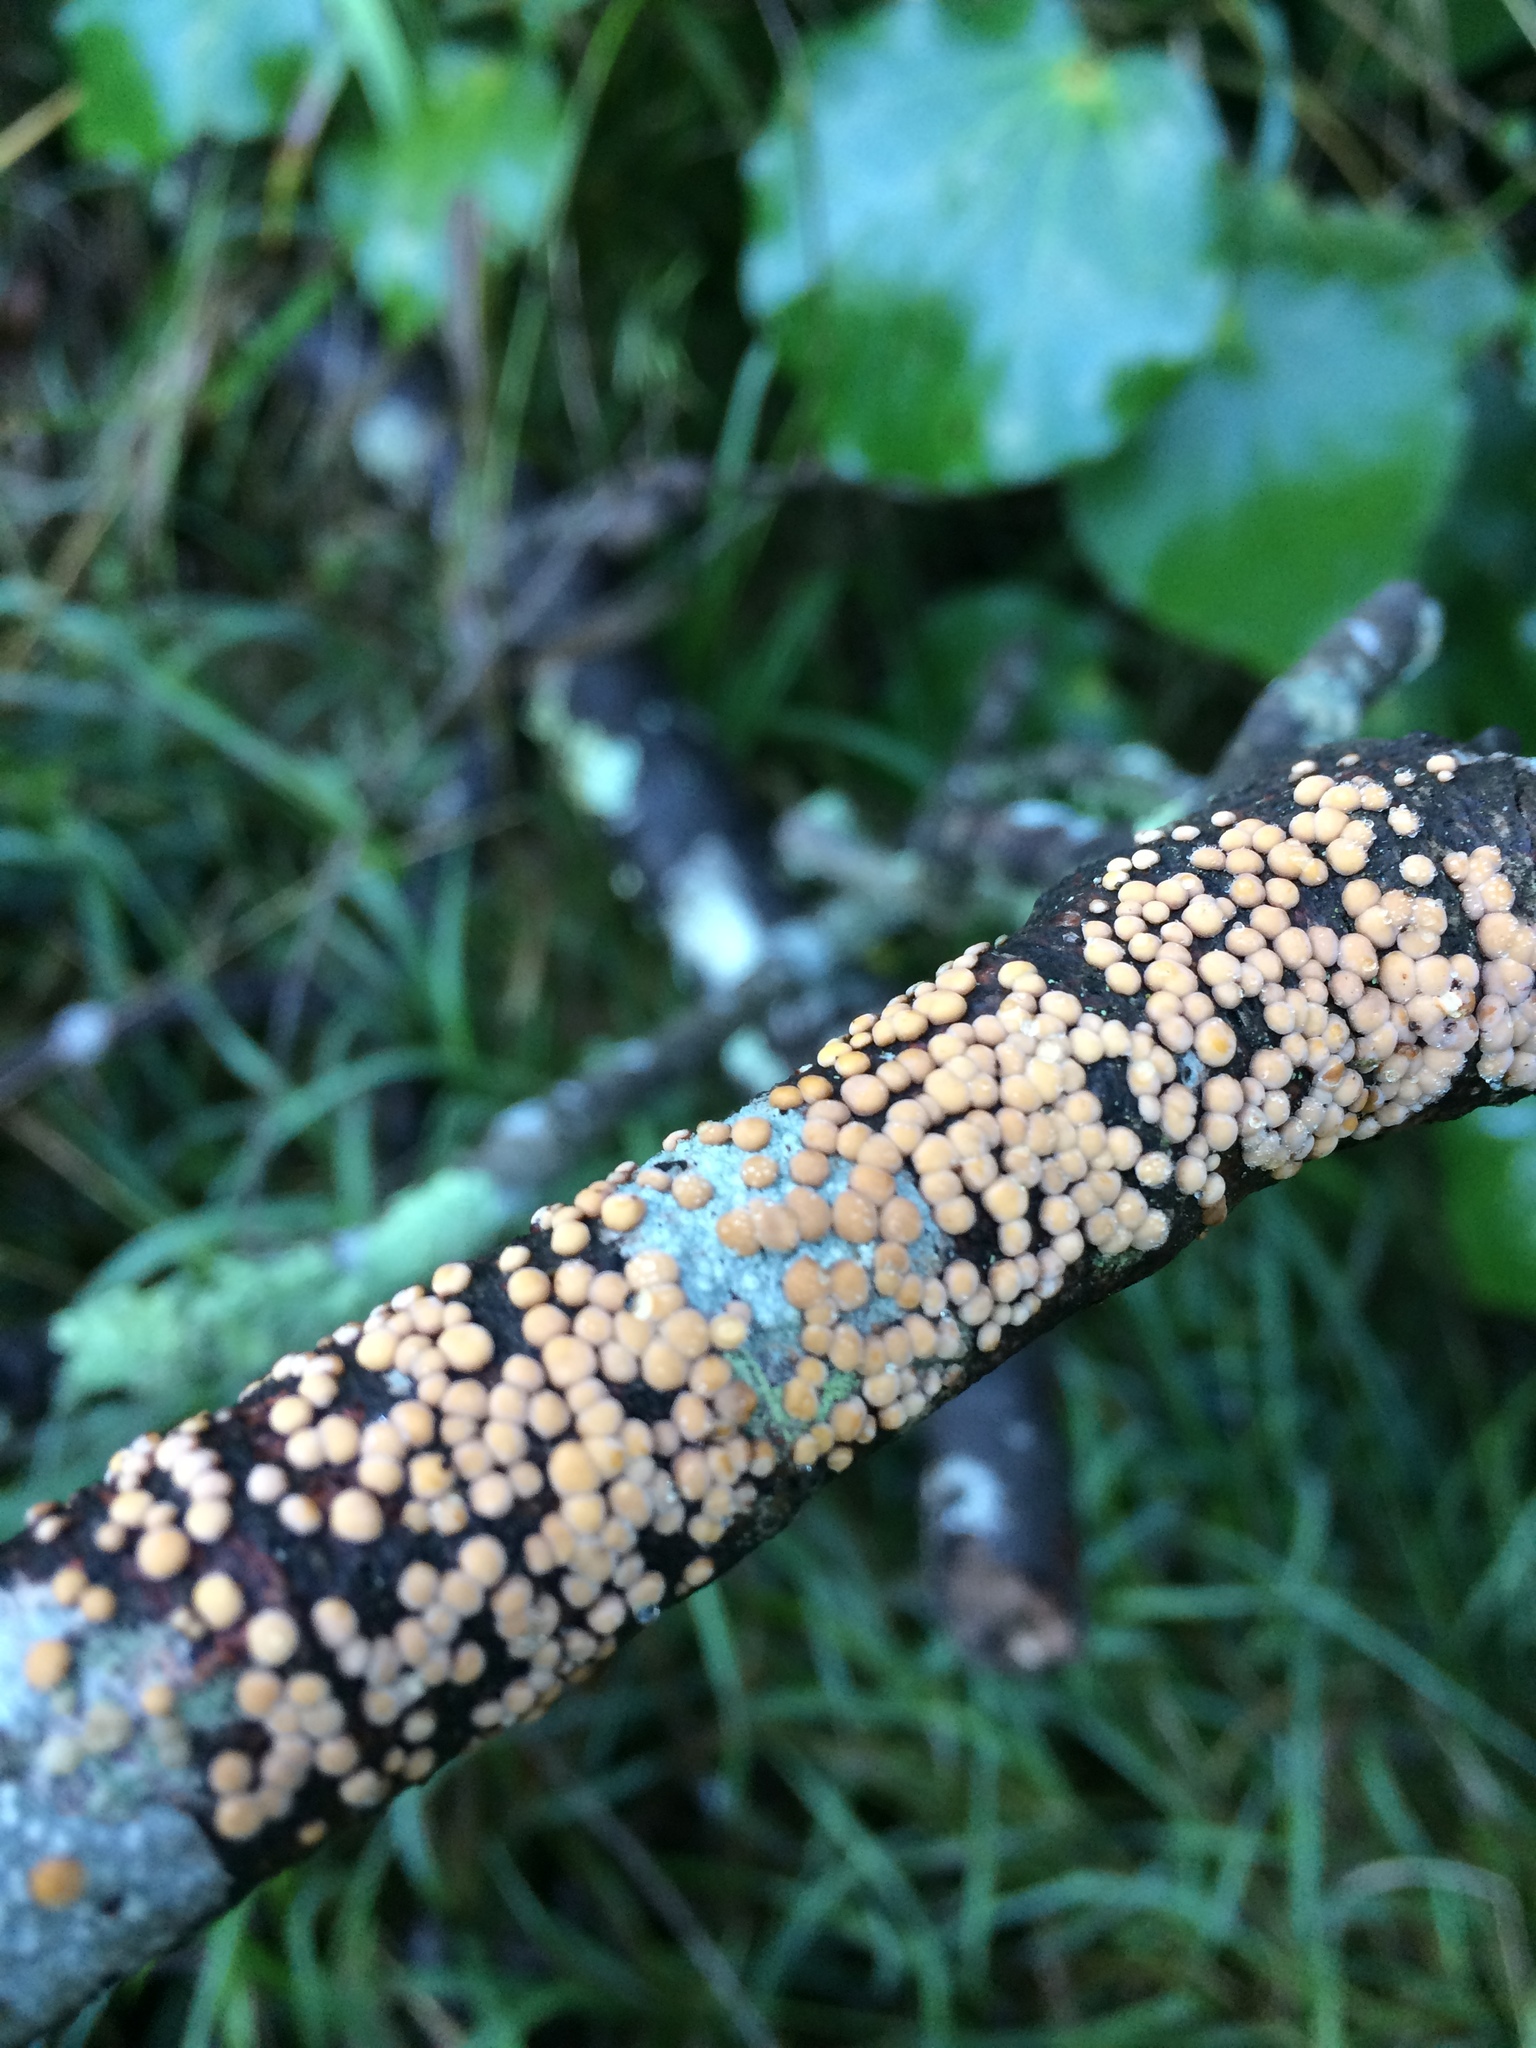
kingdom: Fungi
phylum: Basidiomycota
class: Agaricomycetes
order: Russulales
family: Stereaceae
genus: Aleurodiscus
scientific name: Aleurodiscus berggrenii
